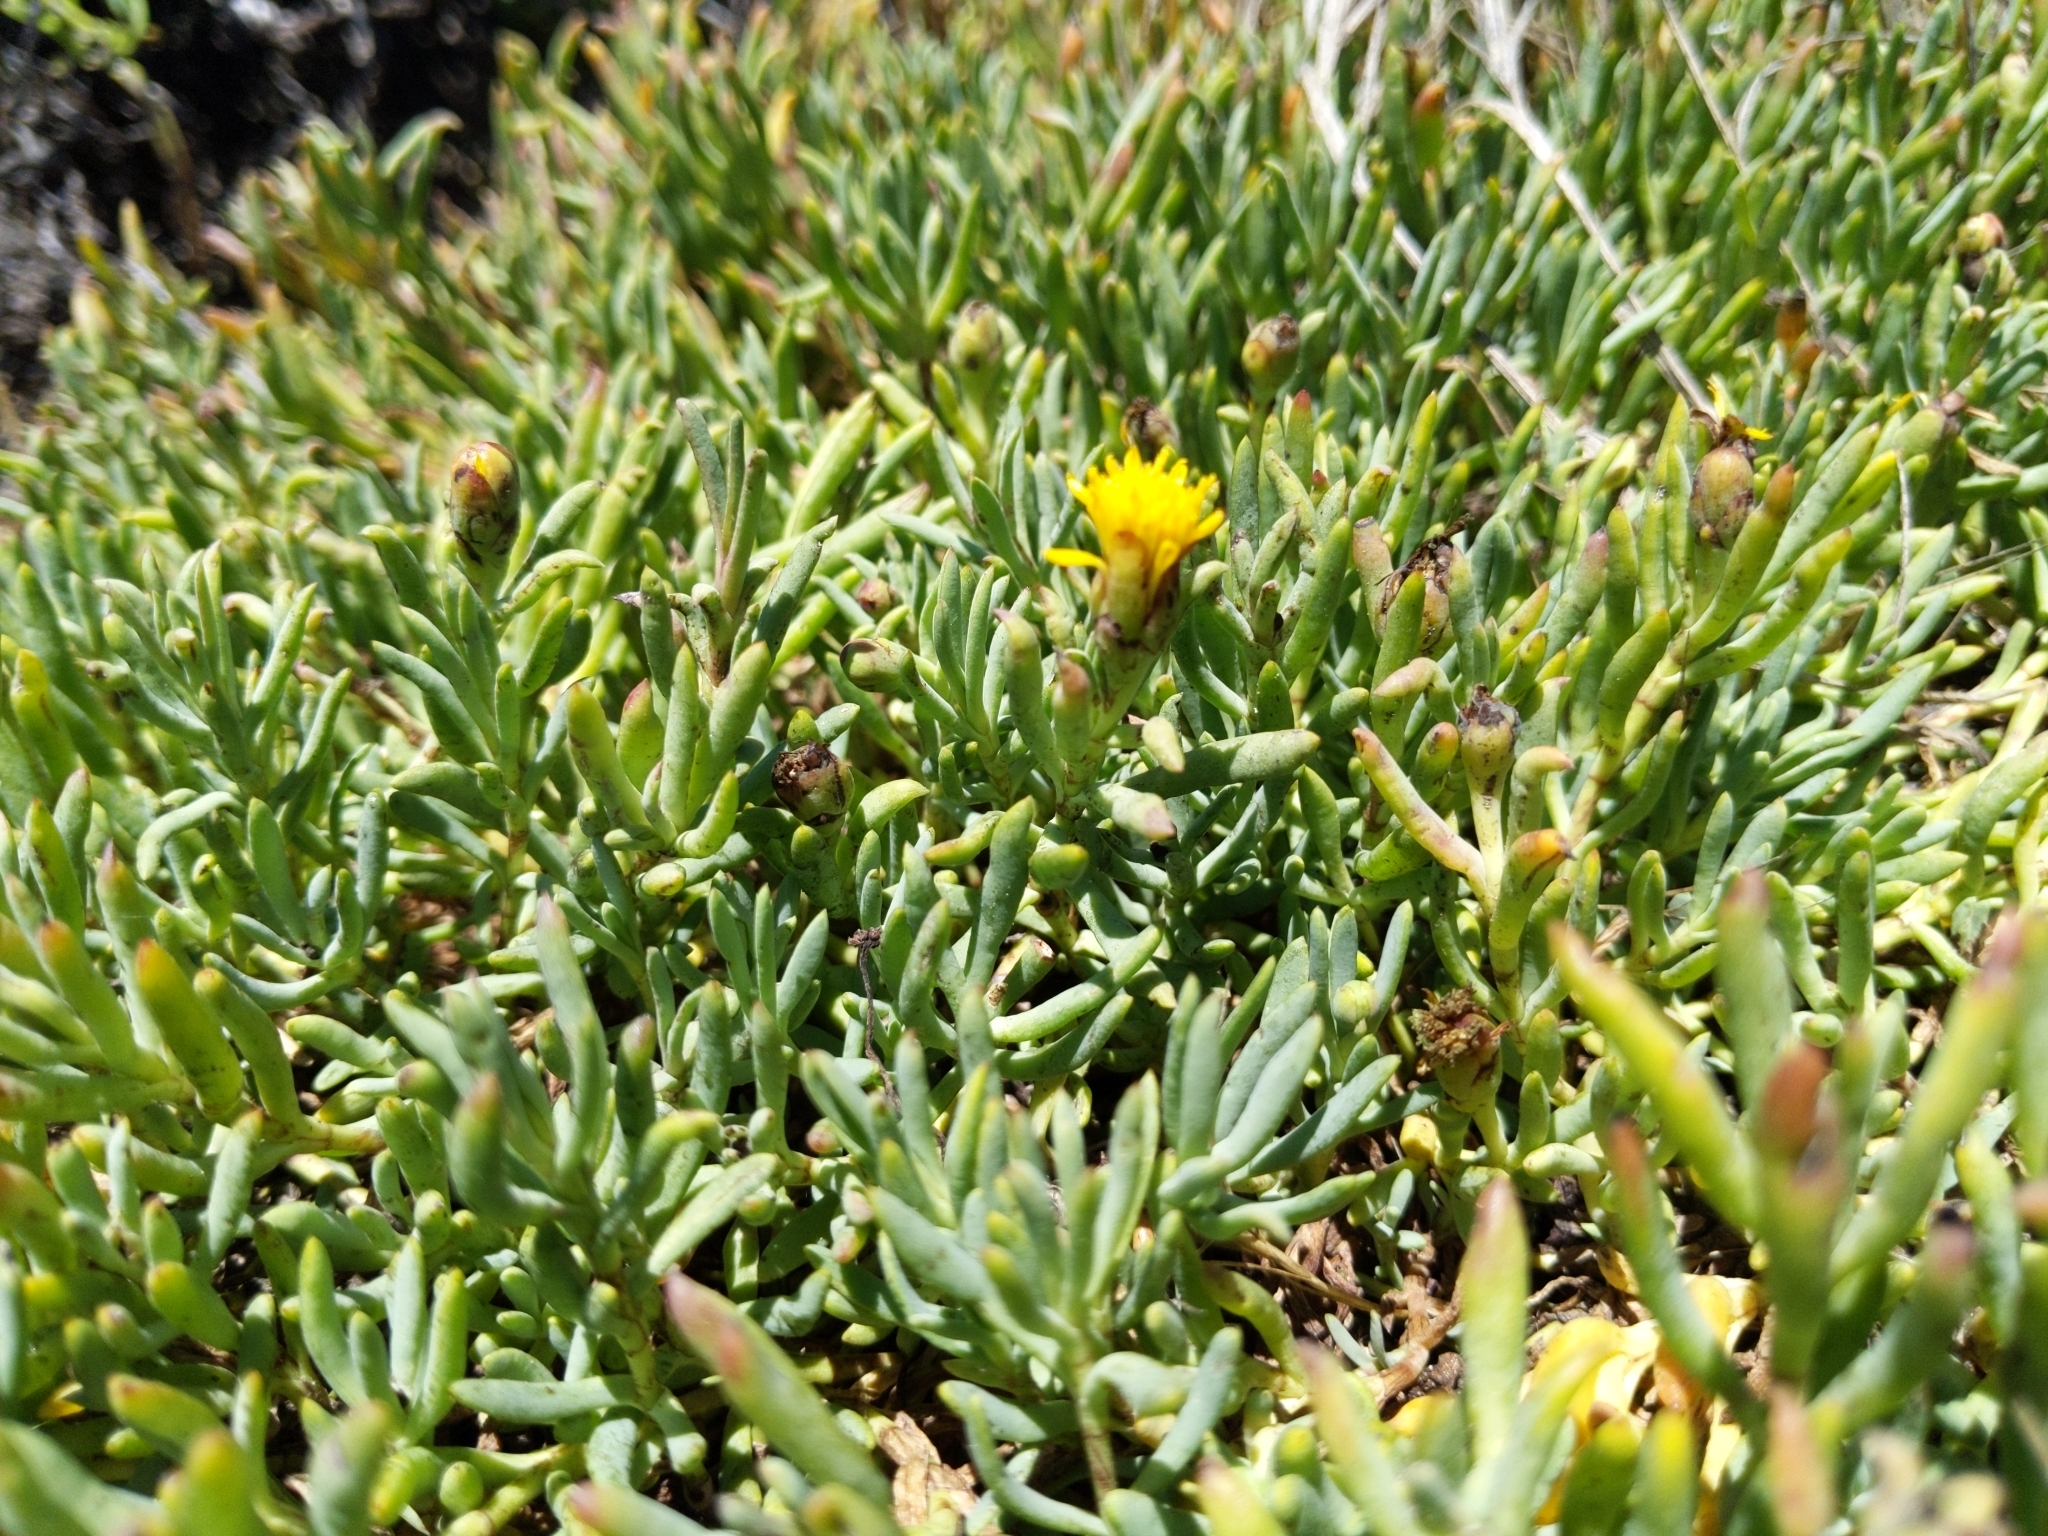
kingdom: Plantae
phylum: Tracheophyta
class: Magnoliopsida
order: Asterales
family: Asteraceae
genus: Jaumea
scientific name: Jaumea carnosa
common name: Fleshy jaumea
